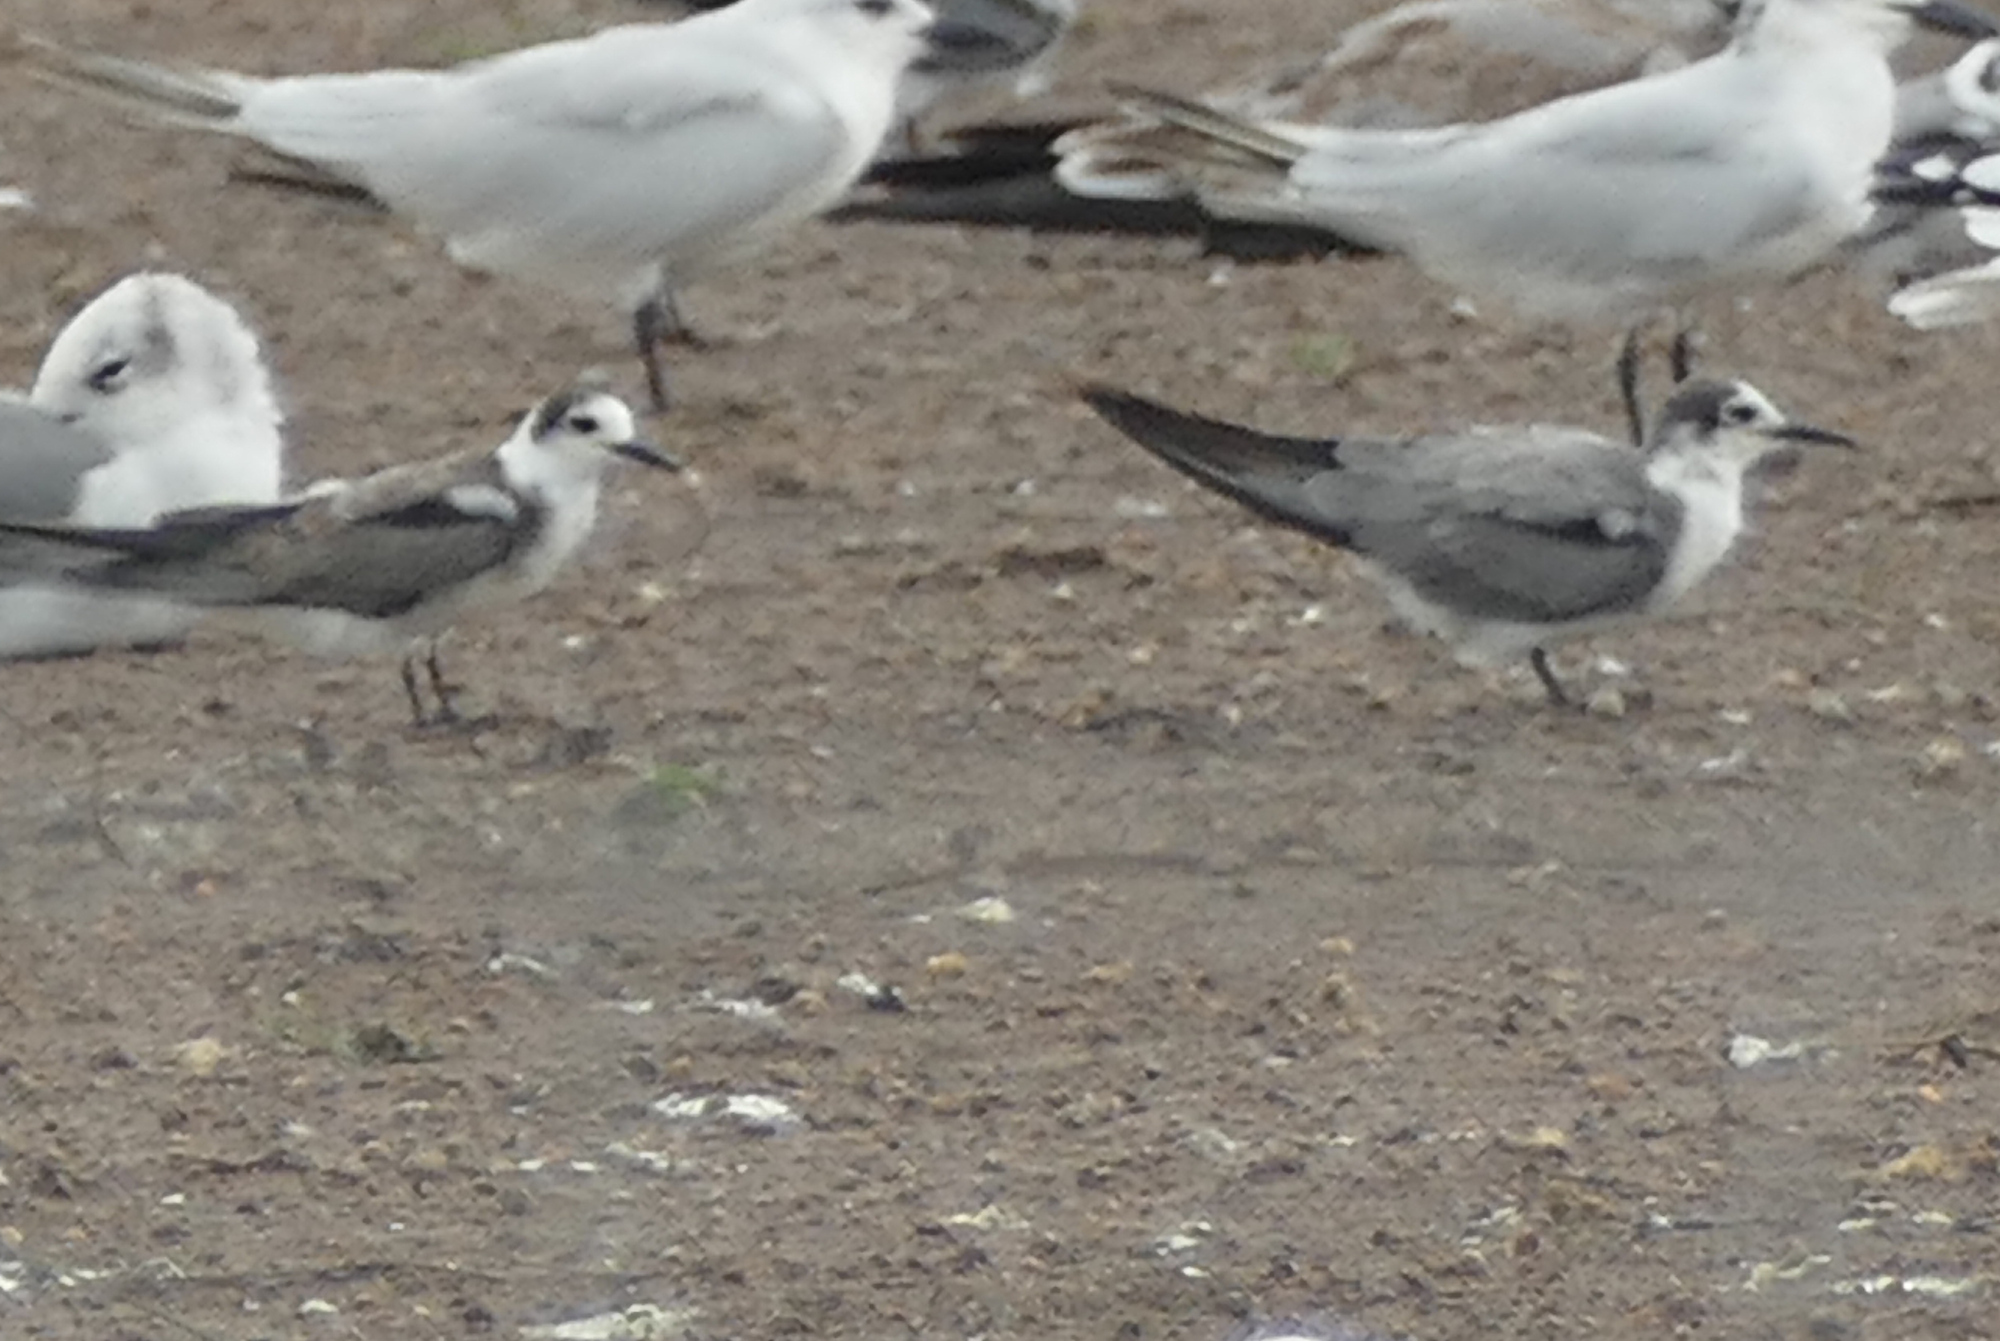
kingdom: Animalia
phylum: Chordata
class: Aves
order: Charadriiformes
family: Laridae
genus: Chlidonias
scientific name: Chlidonias niger
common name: Black tern
